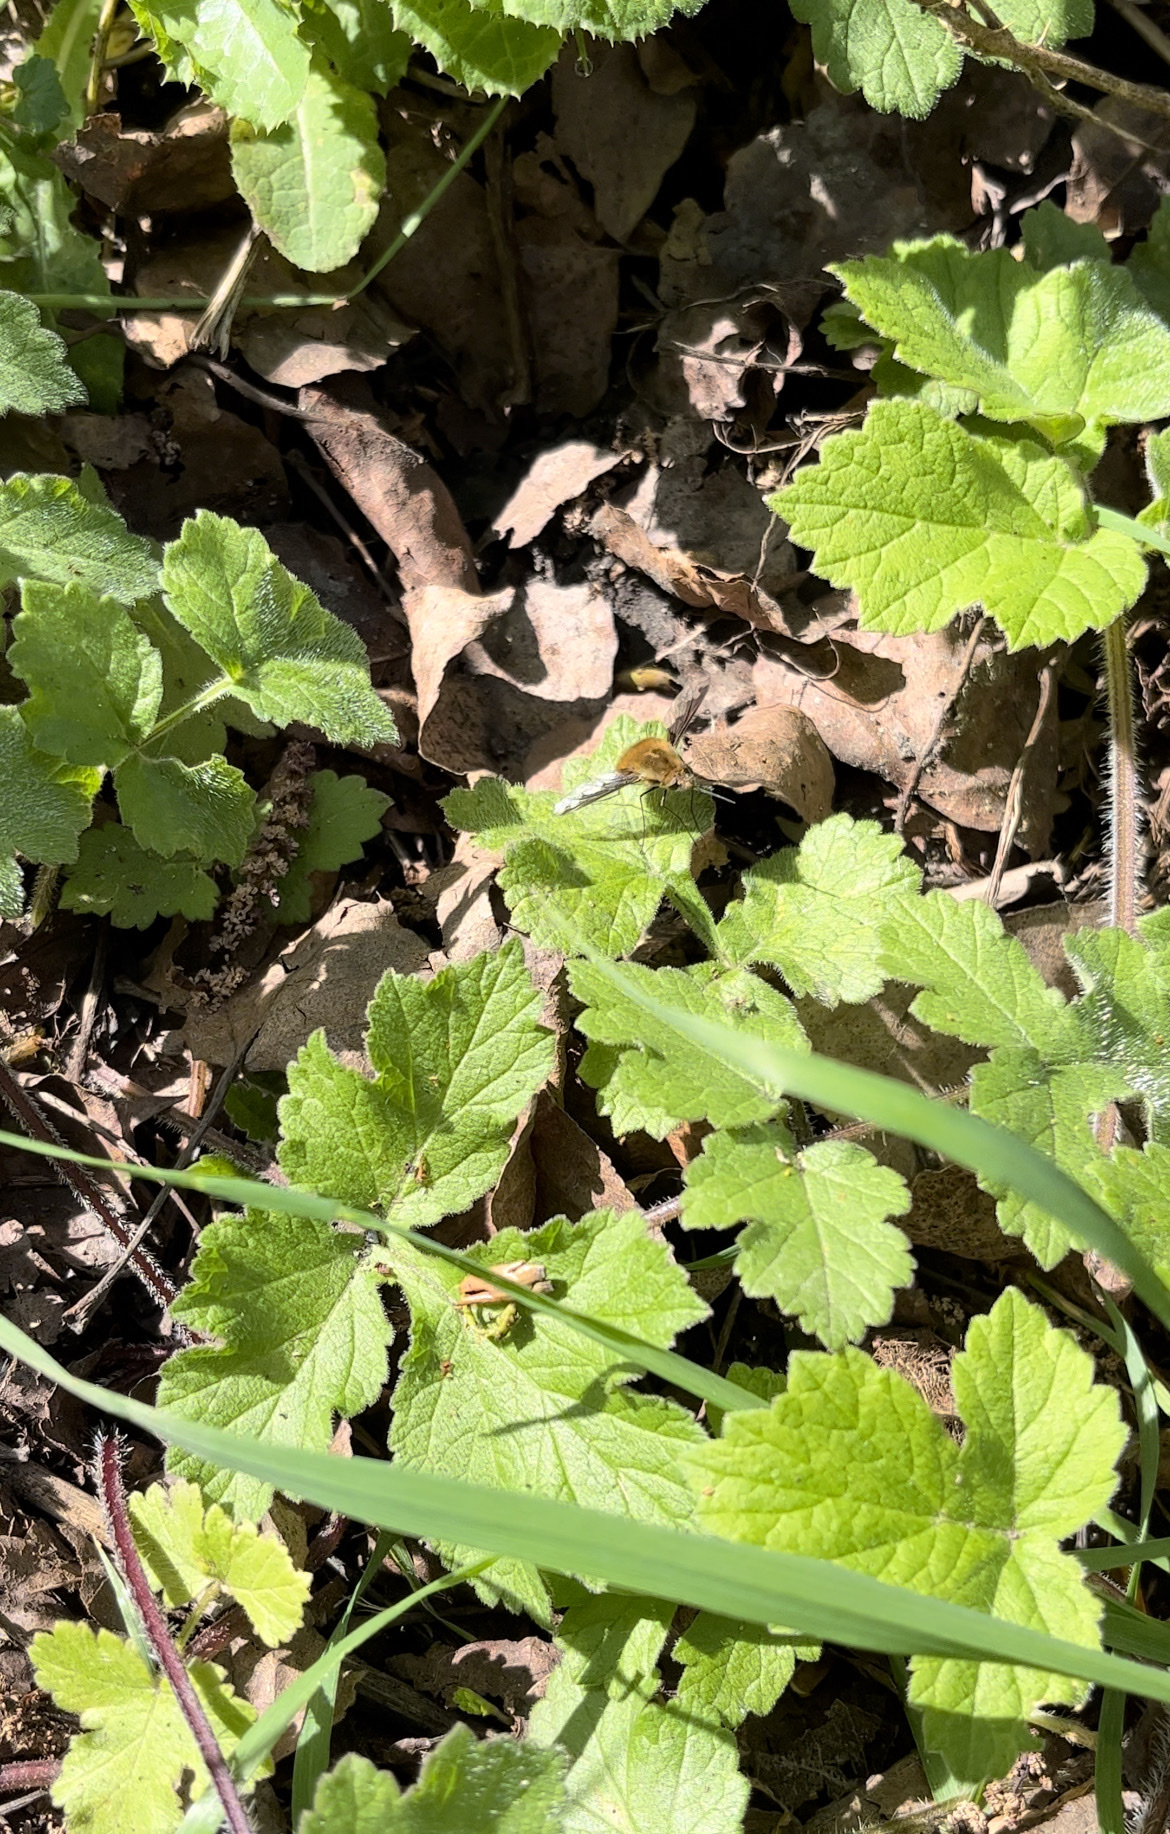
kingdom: Animalia
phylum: Arthropoda
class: Insecta
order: Diptera
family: Bombyliidae
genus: Bombylius
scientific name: Bombylius major
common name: Bee fly
